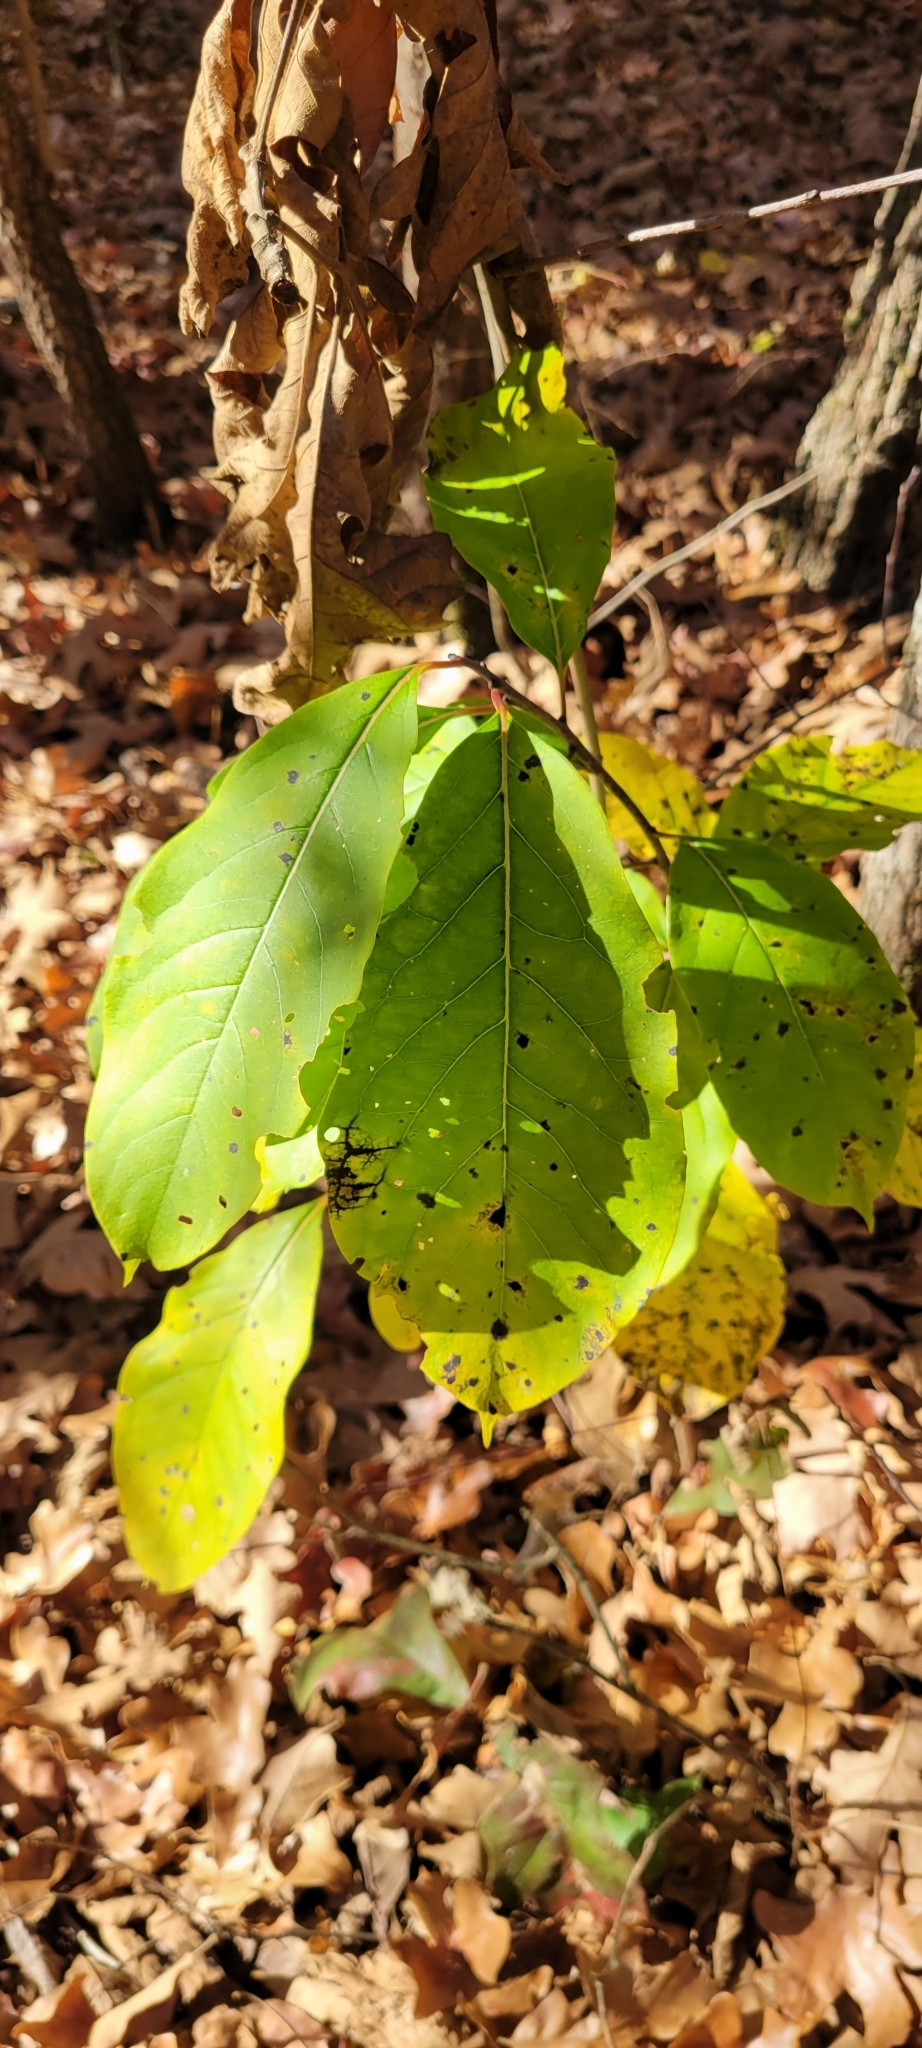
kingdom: Plantae
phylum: Tracheophyta
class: Magnoliopsida
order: Ericales
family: Ebenaceae
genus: Diospyros
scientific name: Diospyros virginiana
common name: Persimmon
